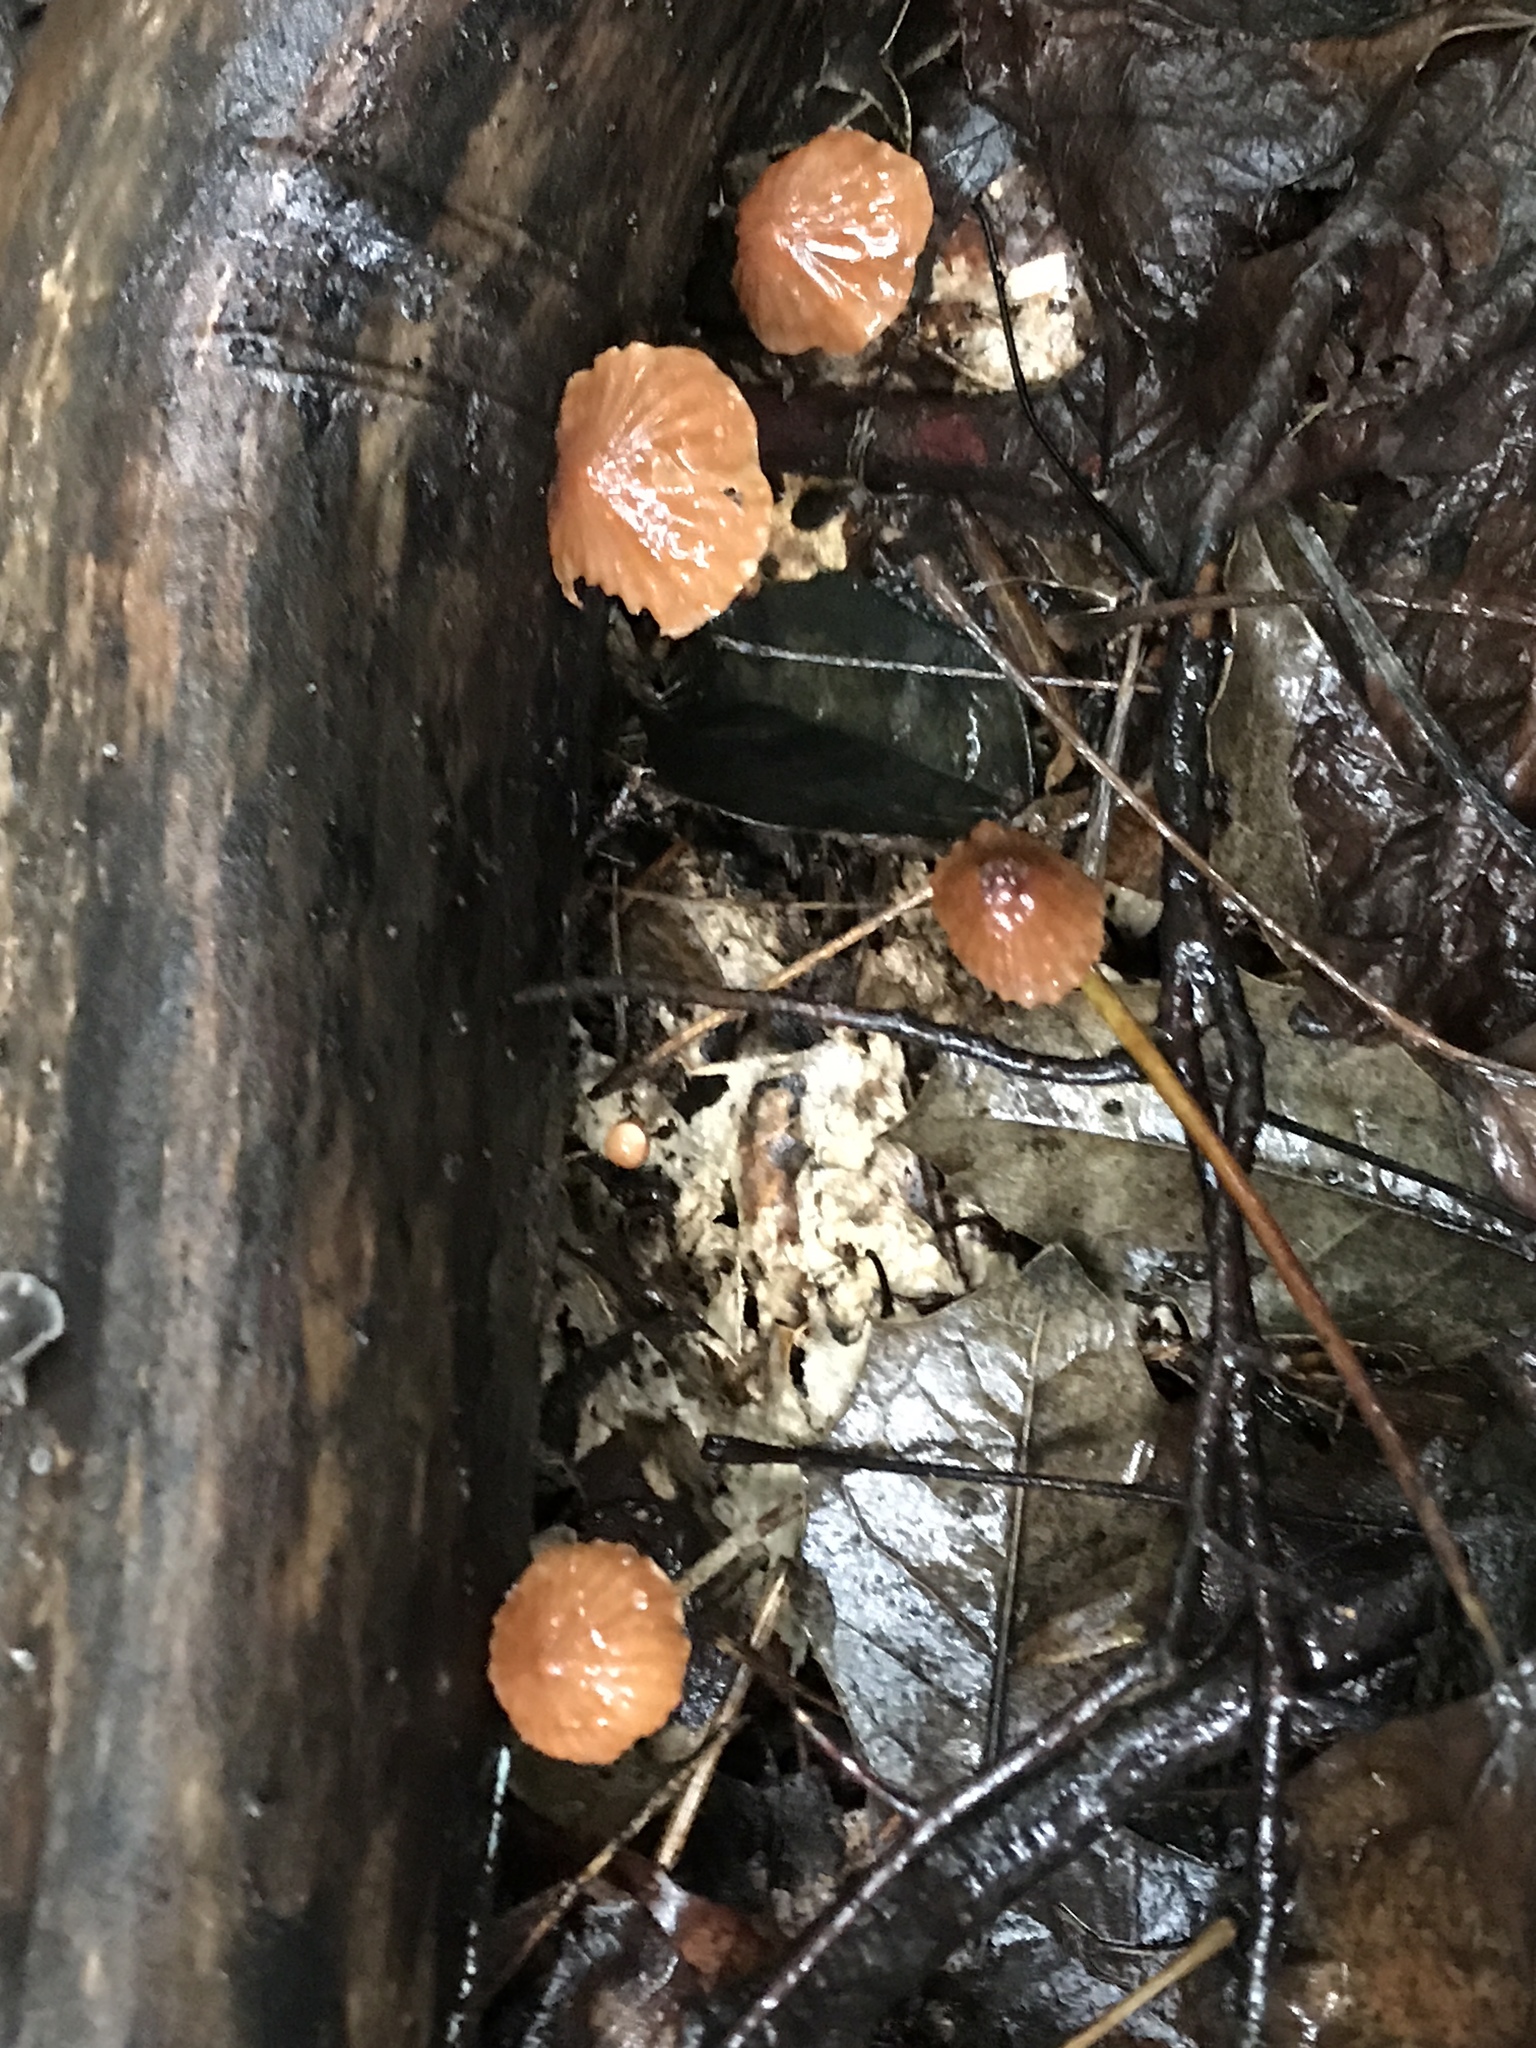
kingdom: Fungi
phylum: Basidiomycota
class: Agaricomycetes
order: Agaricales
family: Marasmiaceae
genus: Marasmius
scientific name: Marasmius siccus
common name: Orange pinwheel
